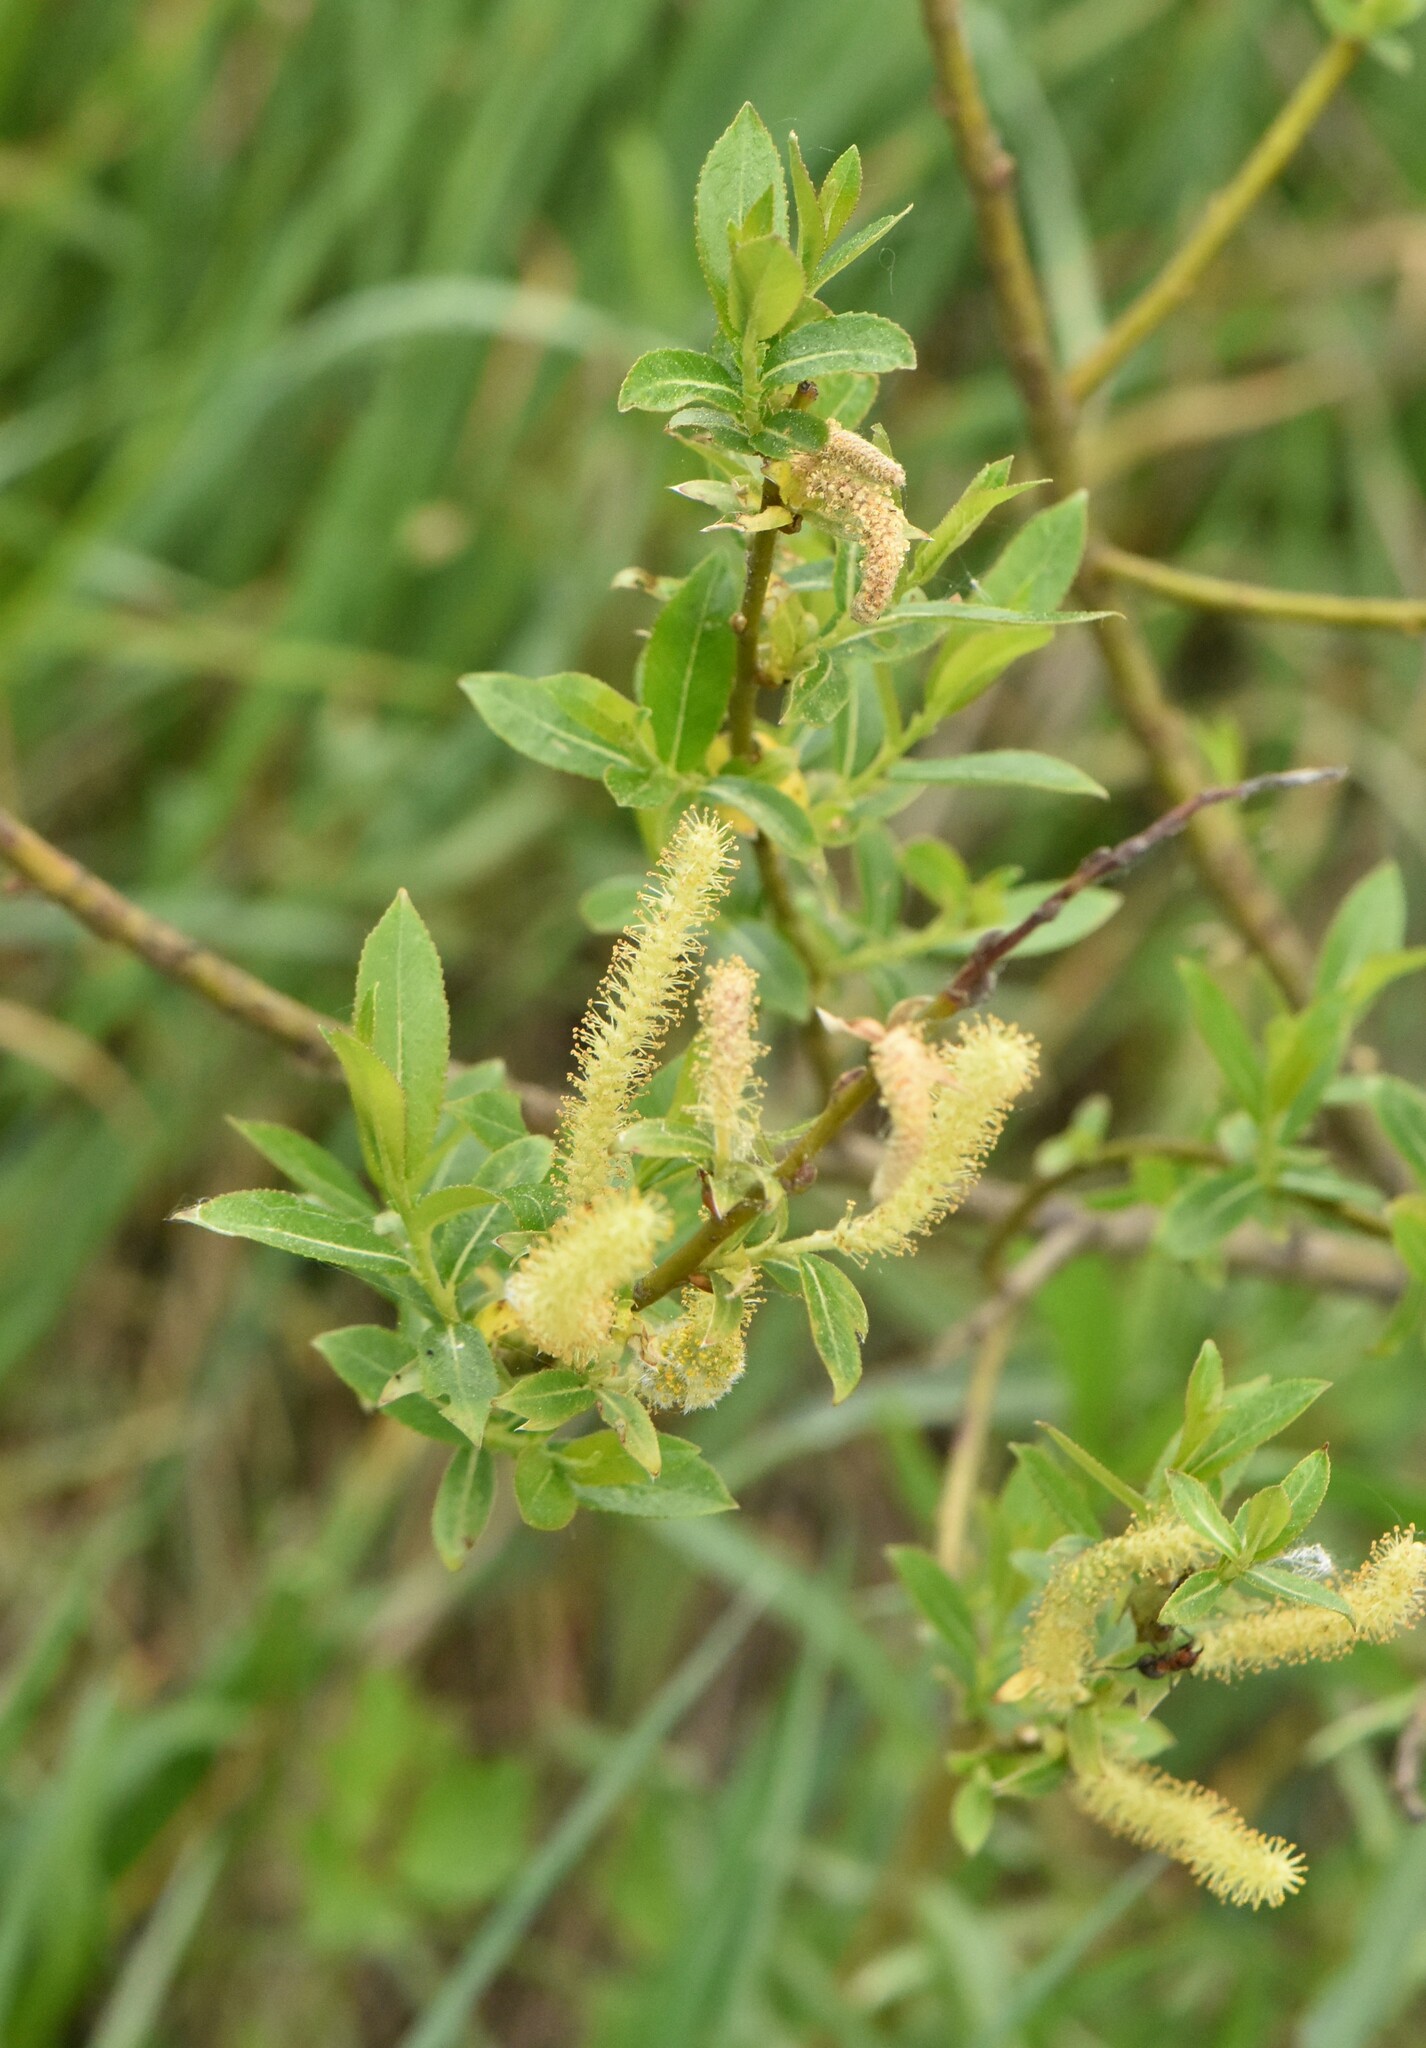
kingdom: Plantae
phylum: Tracheophyta
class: Magnoliopsida
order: Malpighiales
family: Salicaceae
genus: Salix
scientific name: Salix triandra
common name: Almond willow
